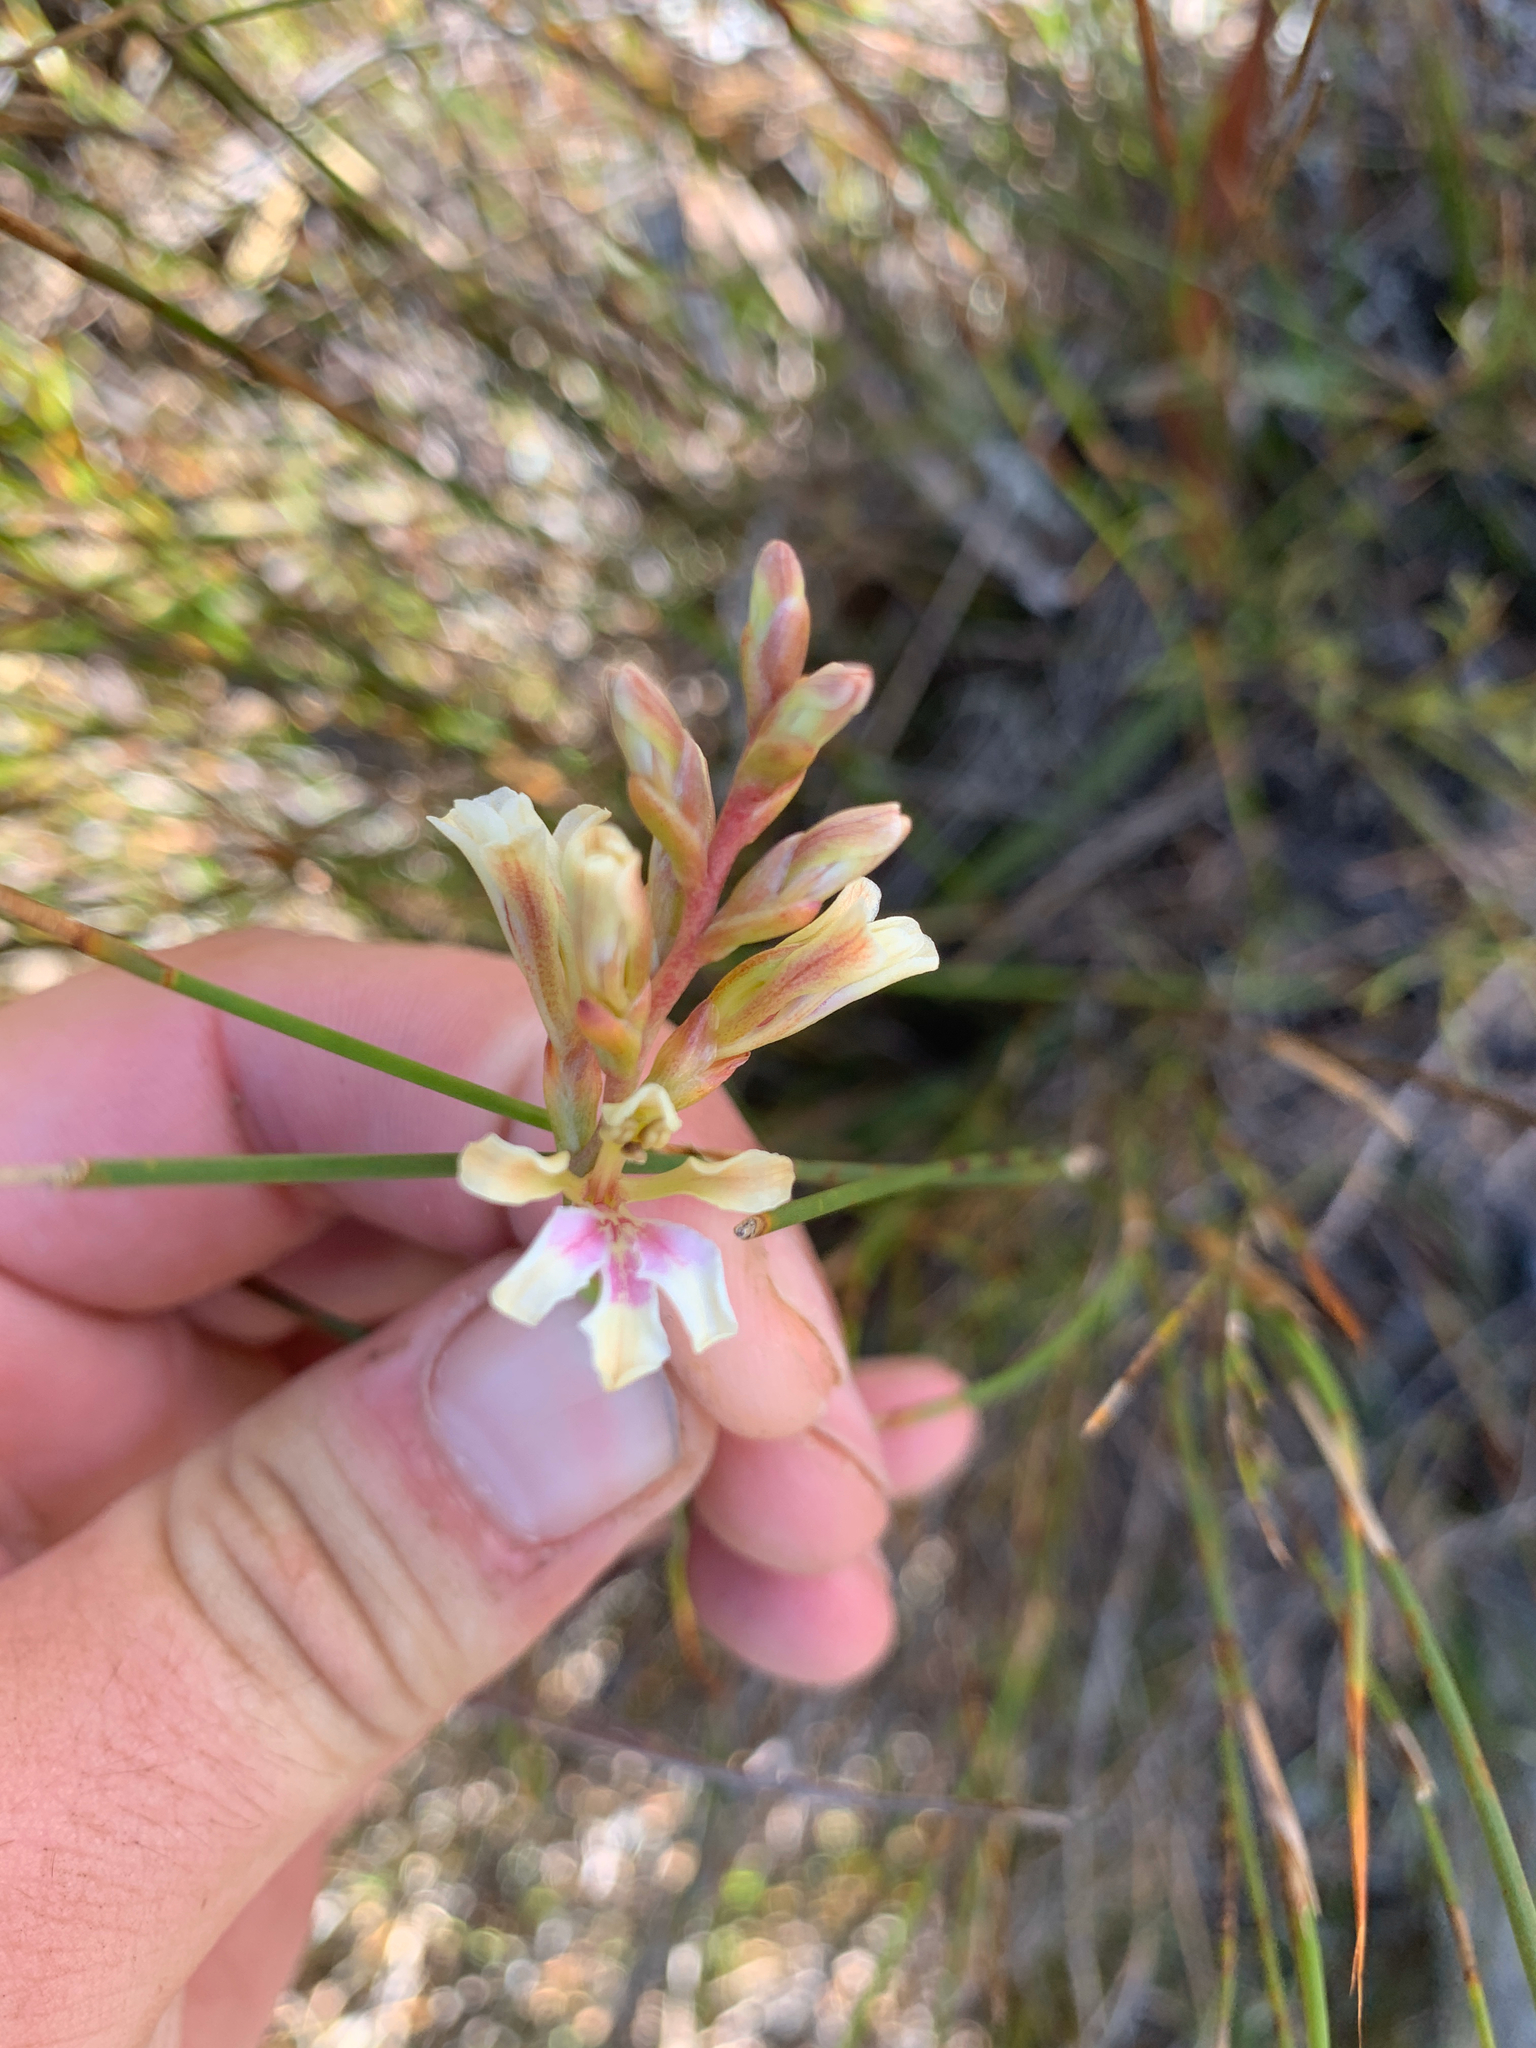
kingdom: Plantae
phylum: Tracheophyta
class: Liliopsida
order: Asparagales
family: Iridaceae
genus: Tritoniopsis
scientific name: Tritoniopsis unguicularis
